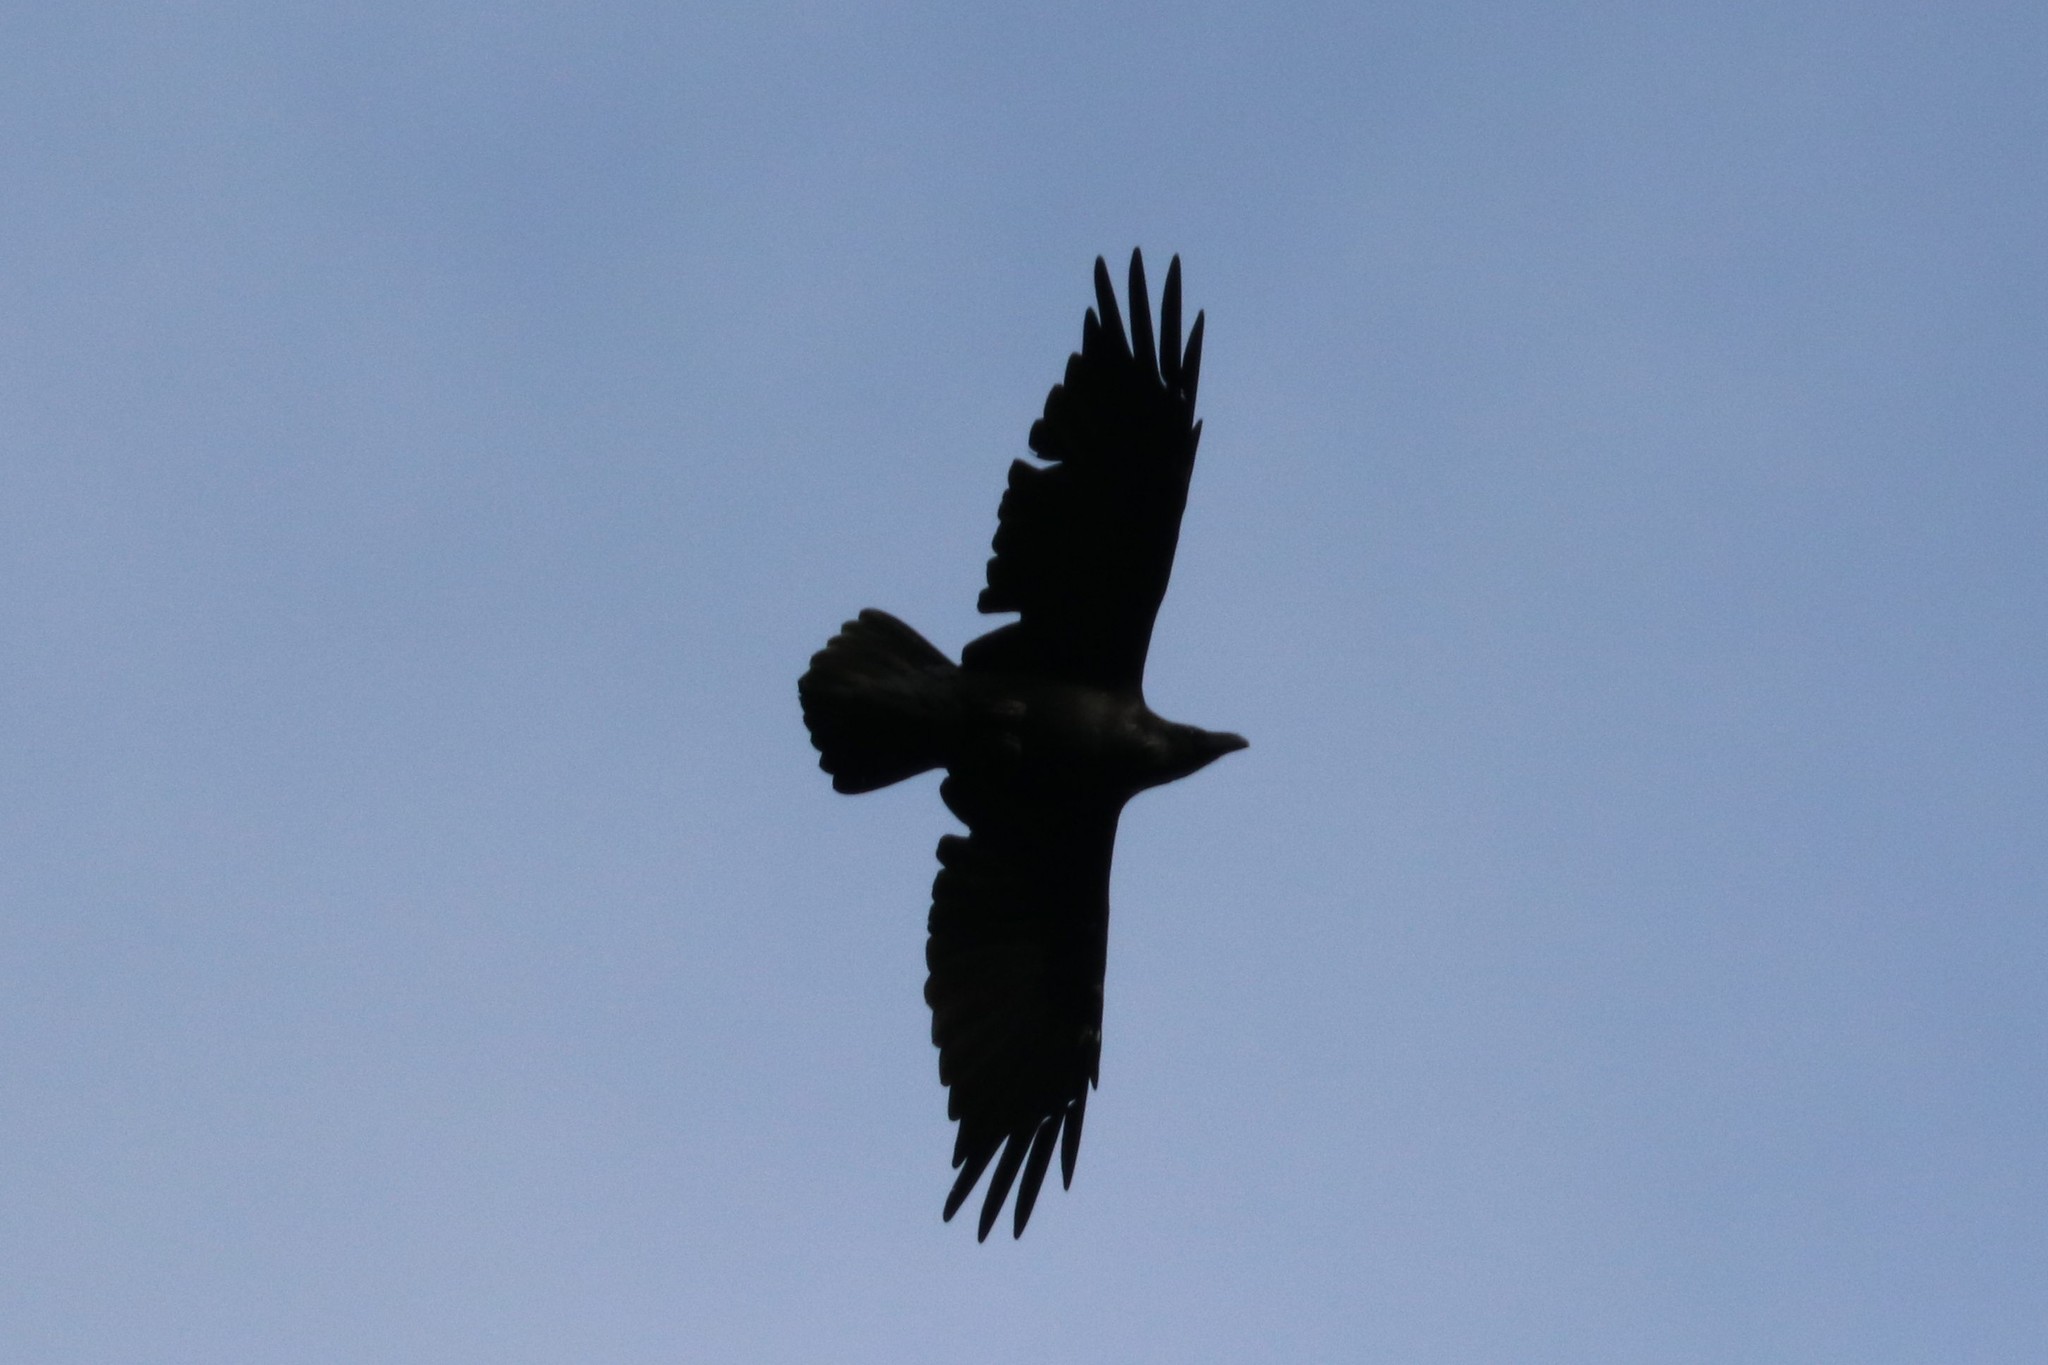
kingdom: Animalia
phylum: Chordata
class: Aves
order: Passeriformes
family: Corvidae
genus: Corvus
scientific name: Corvus corax
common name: Common raven
